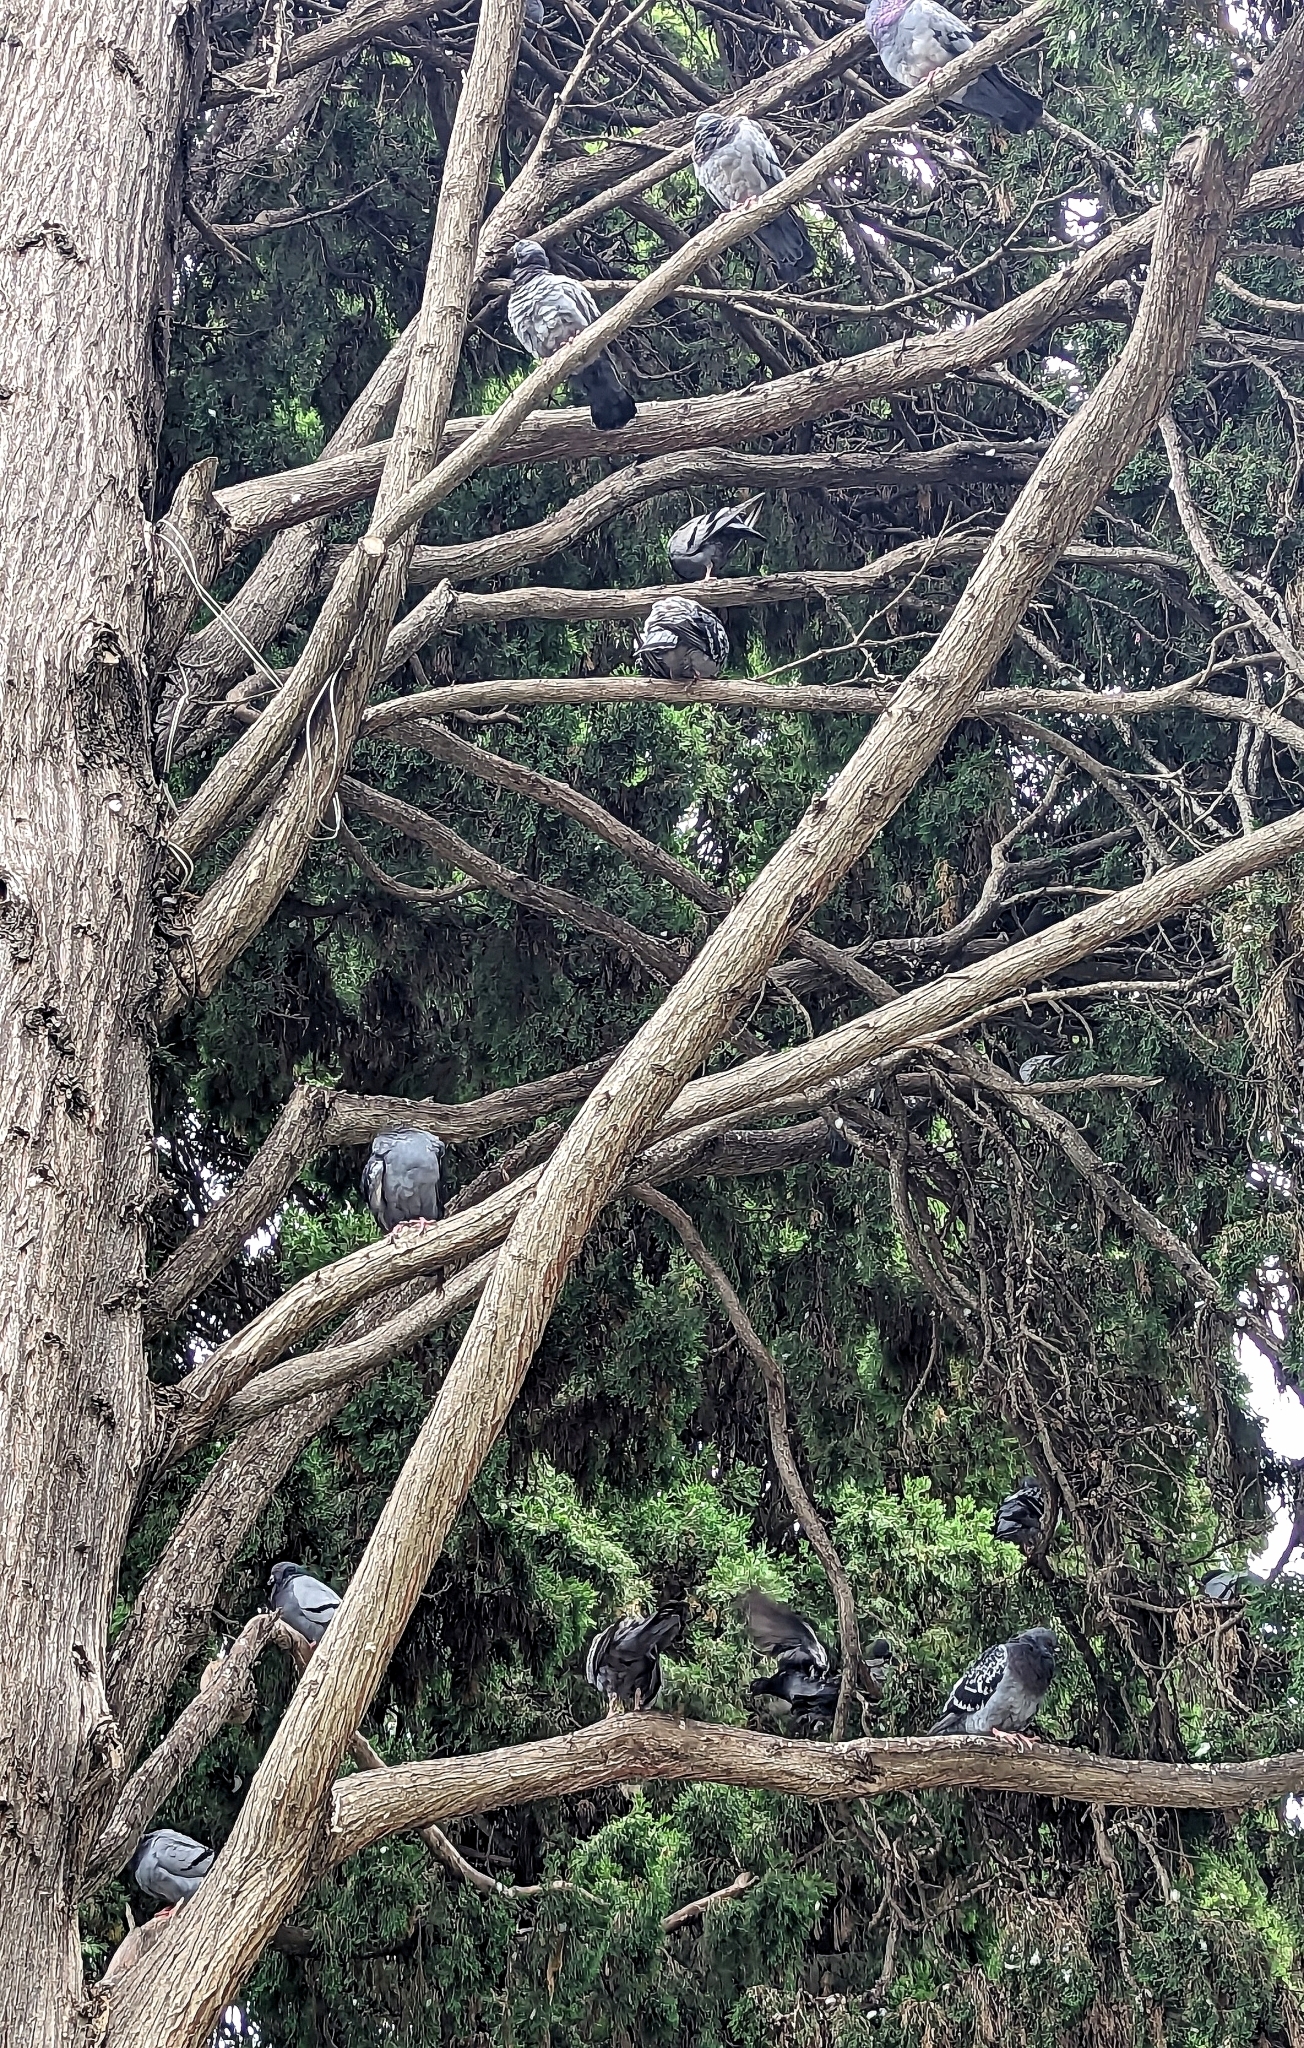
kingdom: Animalia
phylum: Chordata
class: Aves
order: Columbiformes
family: Columbidae
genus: Columba
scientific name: Columba livia
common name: Rock pigeon
